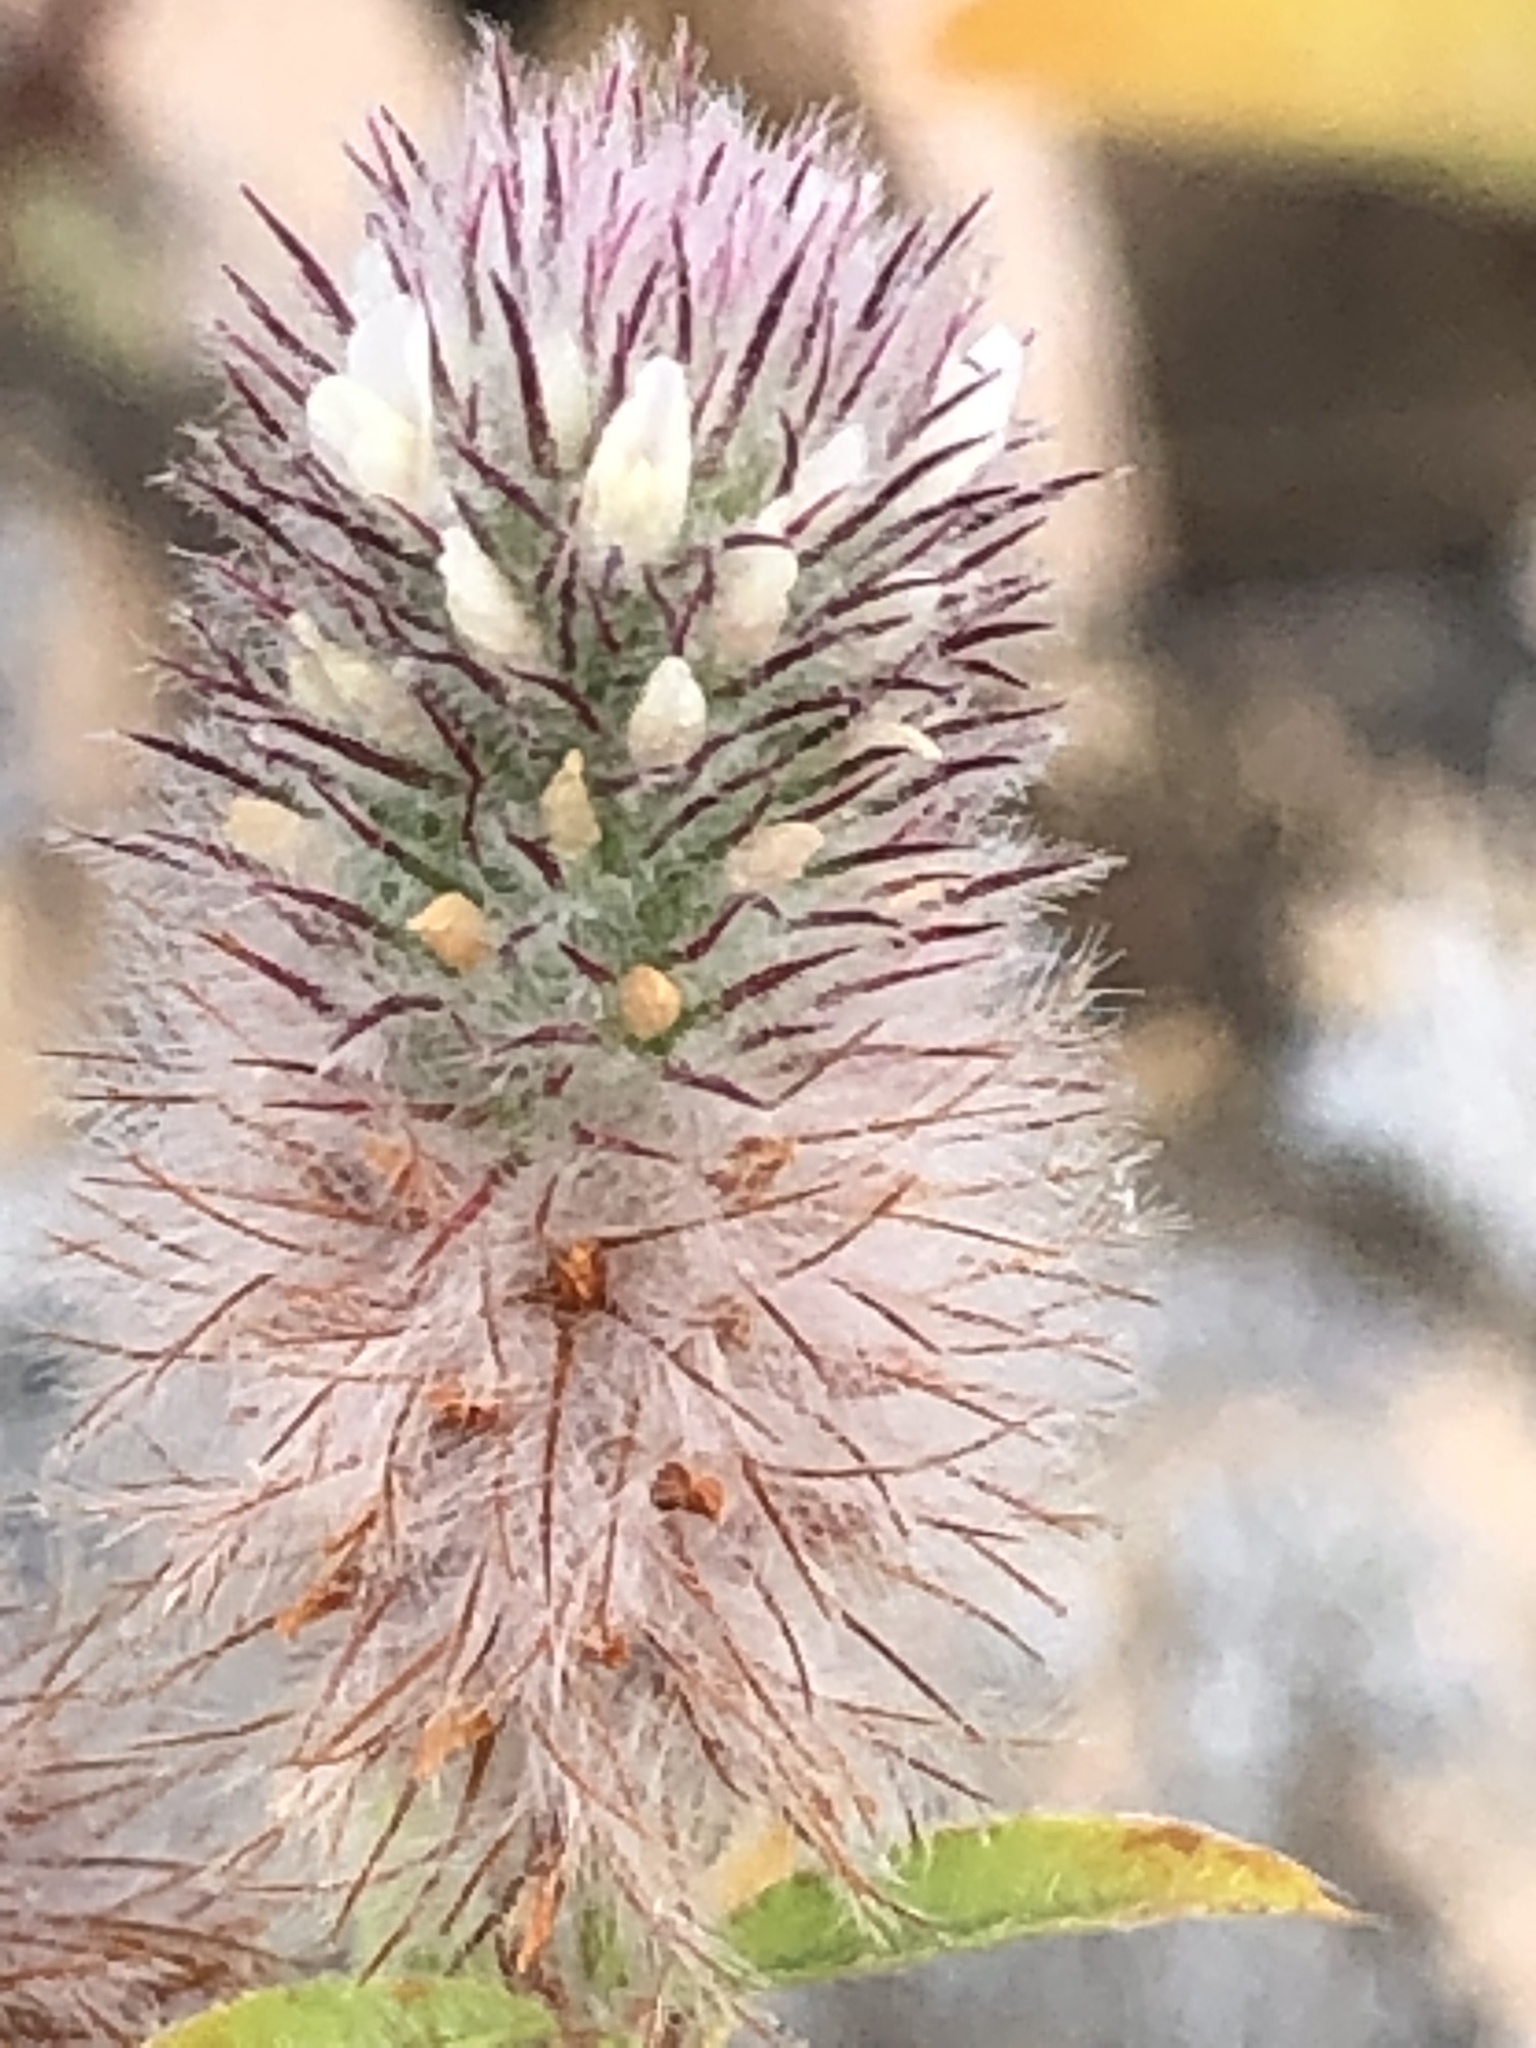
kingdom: Plantae
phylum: Tracheophyta
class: Magnoliopsida
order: Fabales
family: Fabaceae
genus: Trifolium
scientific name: Trifolium arvense
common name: Hare's-foot clover
